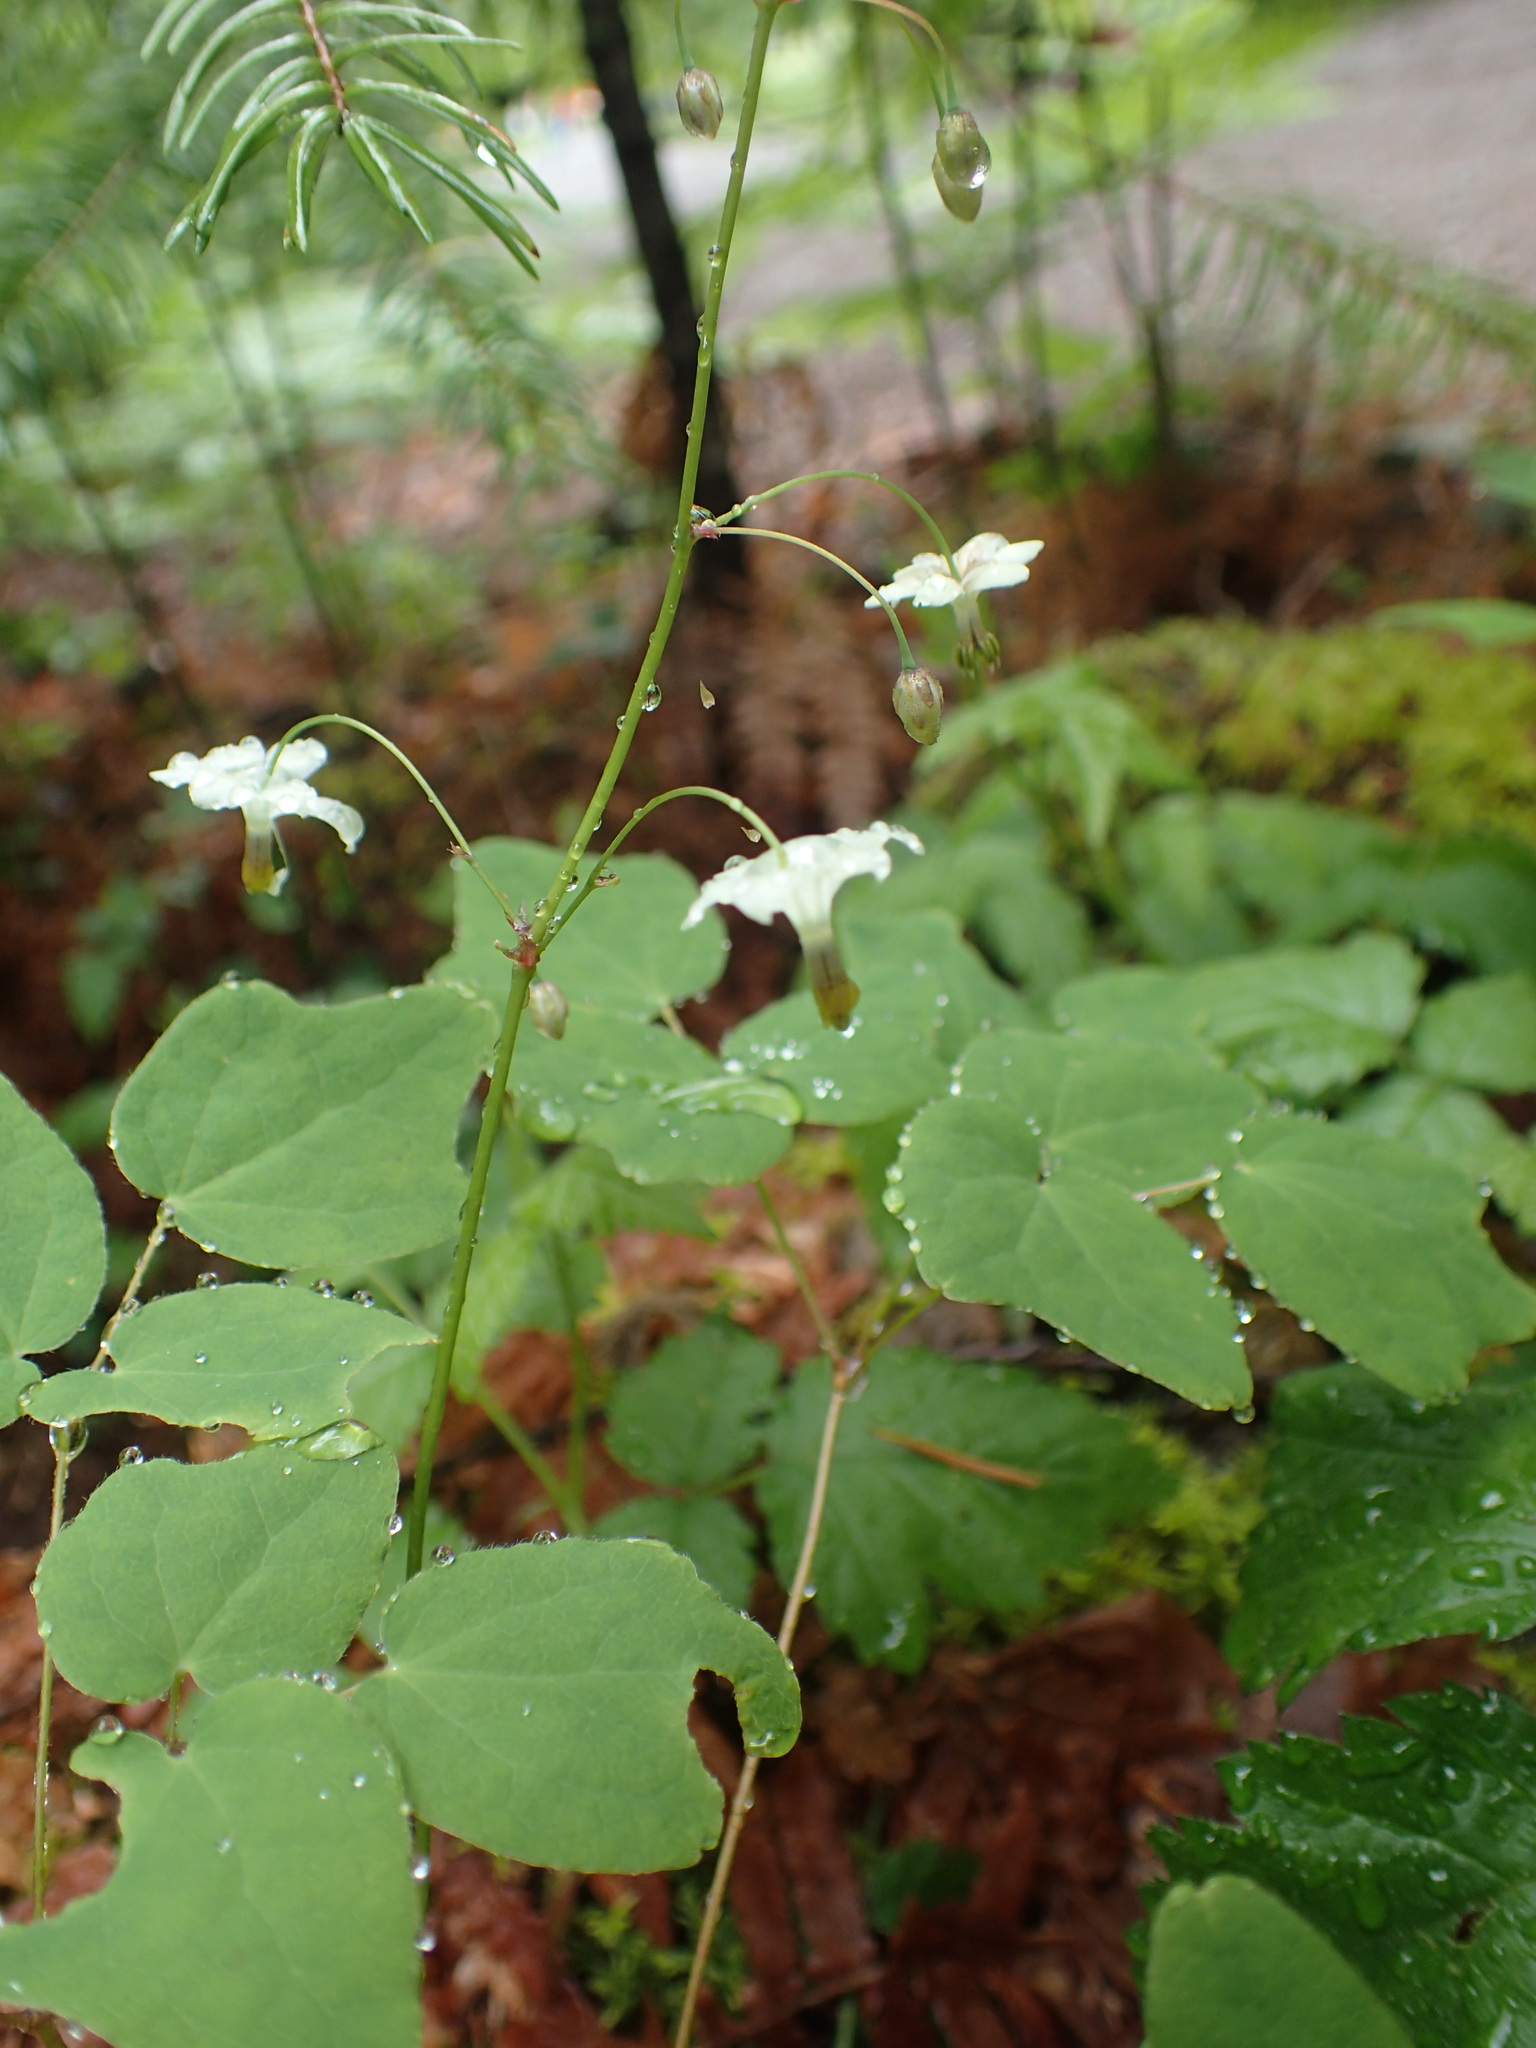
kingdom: Plantae
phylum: Tracheophyta
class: Magnoliopsida
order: Ranunculales
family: Berberidaceae
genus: Vancouveria
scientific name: Vancouveria hexandra
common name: Northern inside-out-flower
